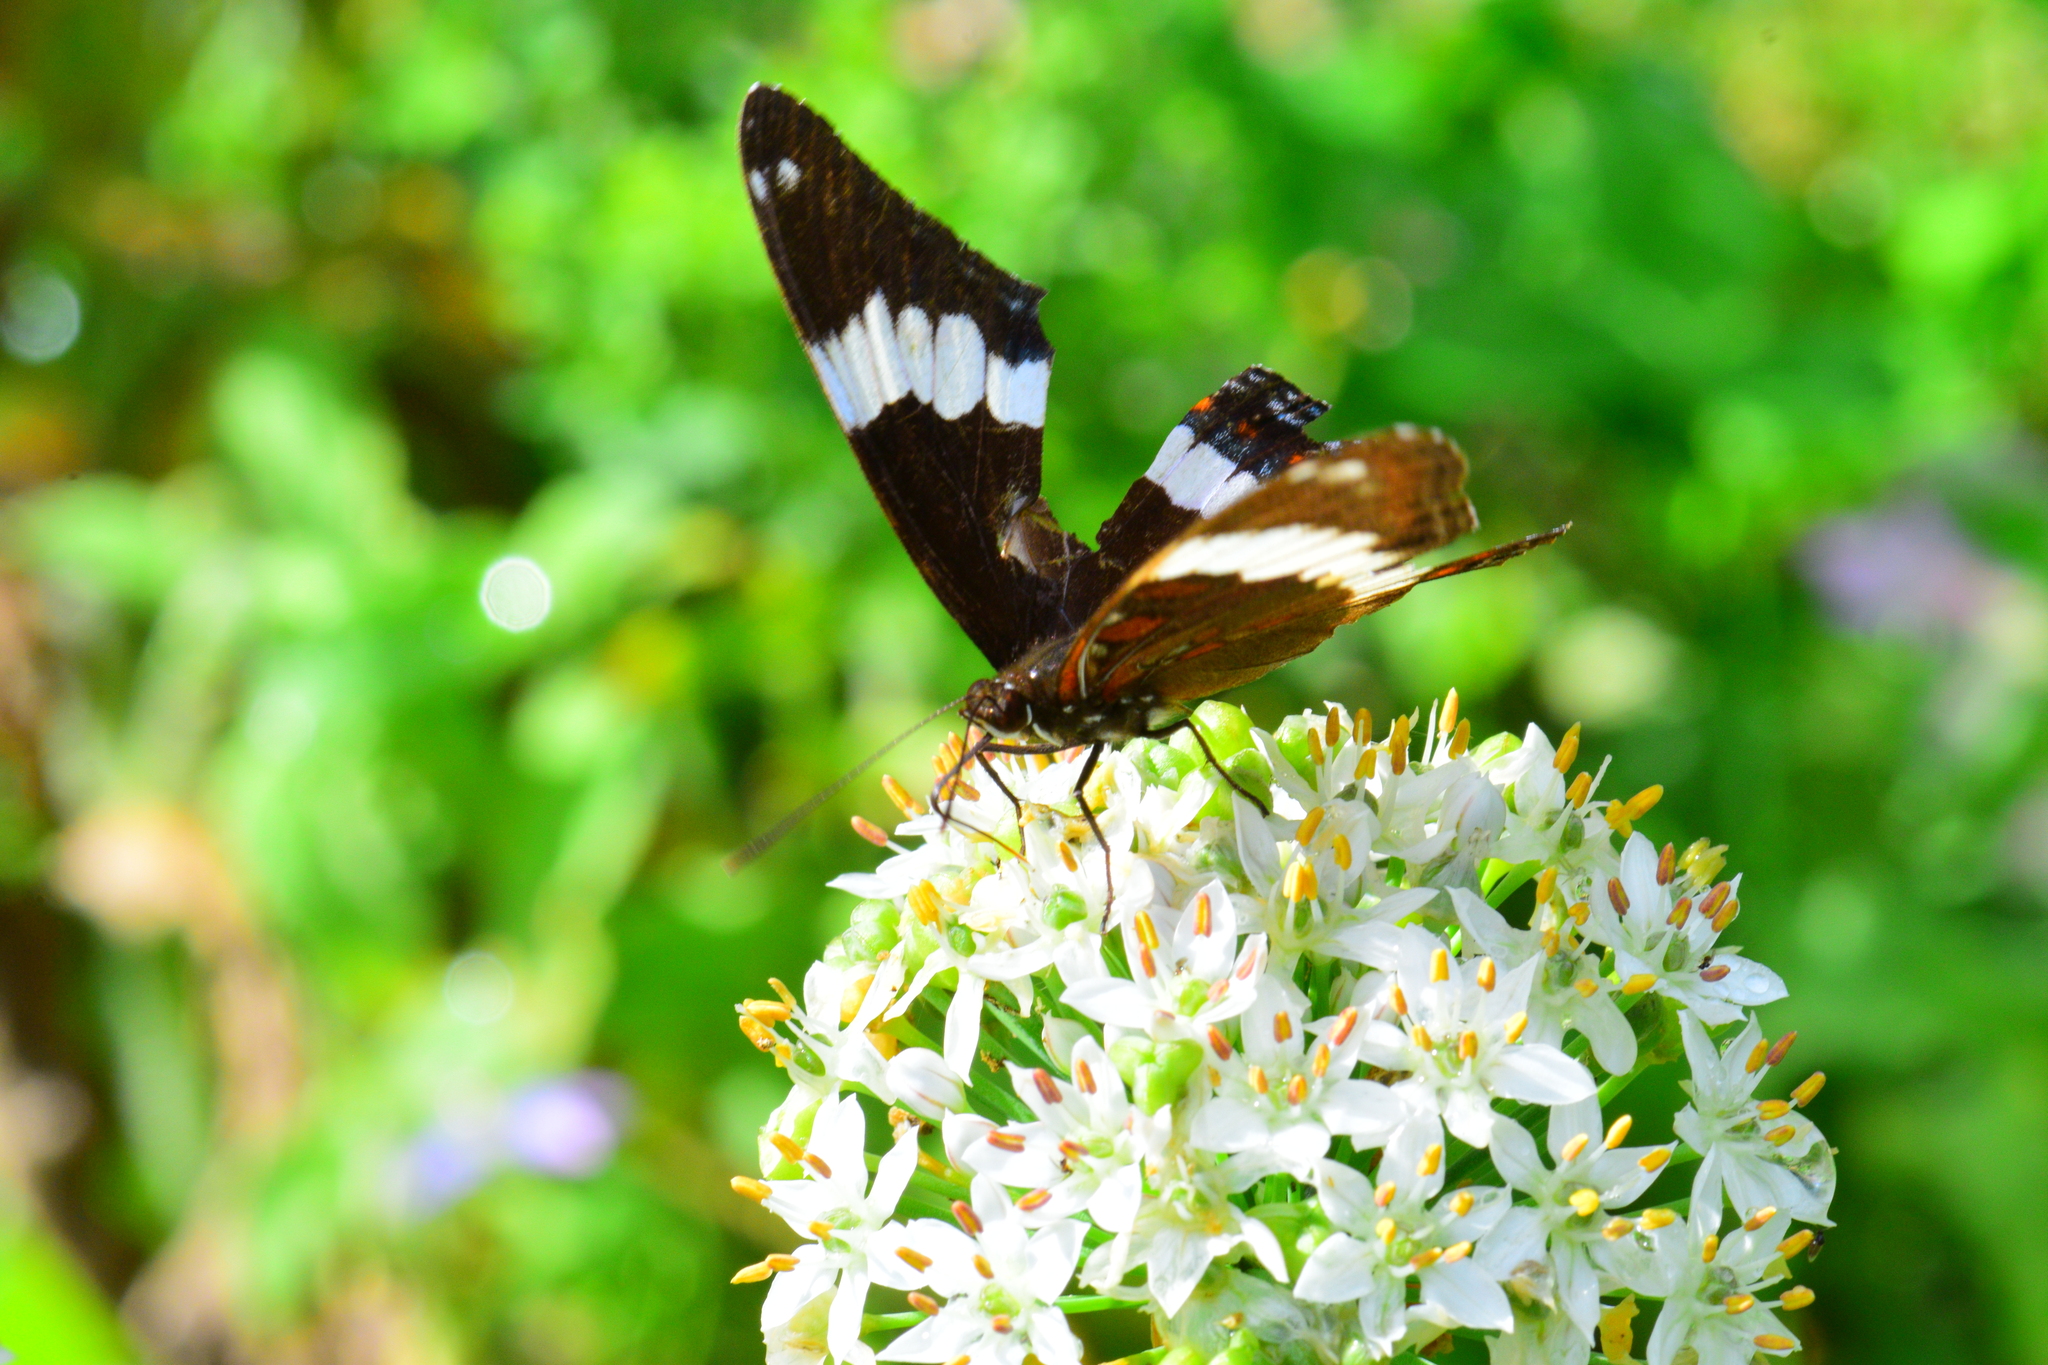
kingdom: Animalia
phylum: Arthropoda
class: Insecta
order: Lepidoptera
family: Nymphalidae
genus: Limenitis
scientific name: Limenitis arthemis
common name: Red-spotted admiral
